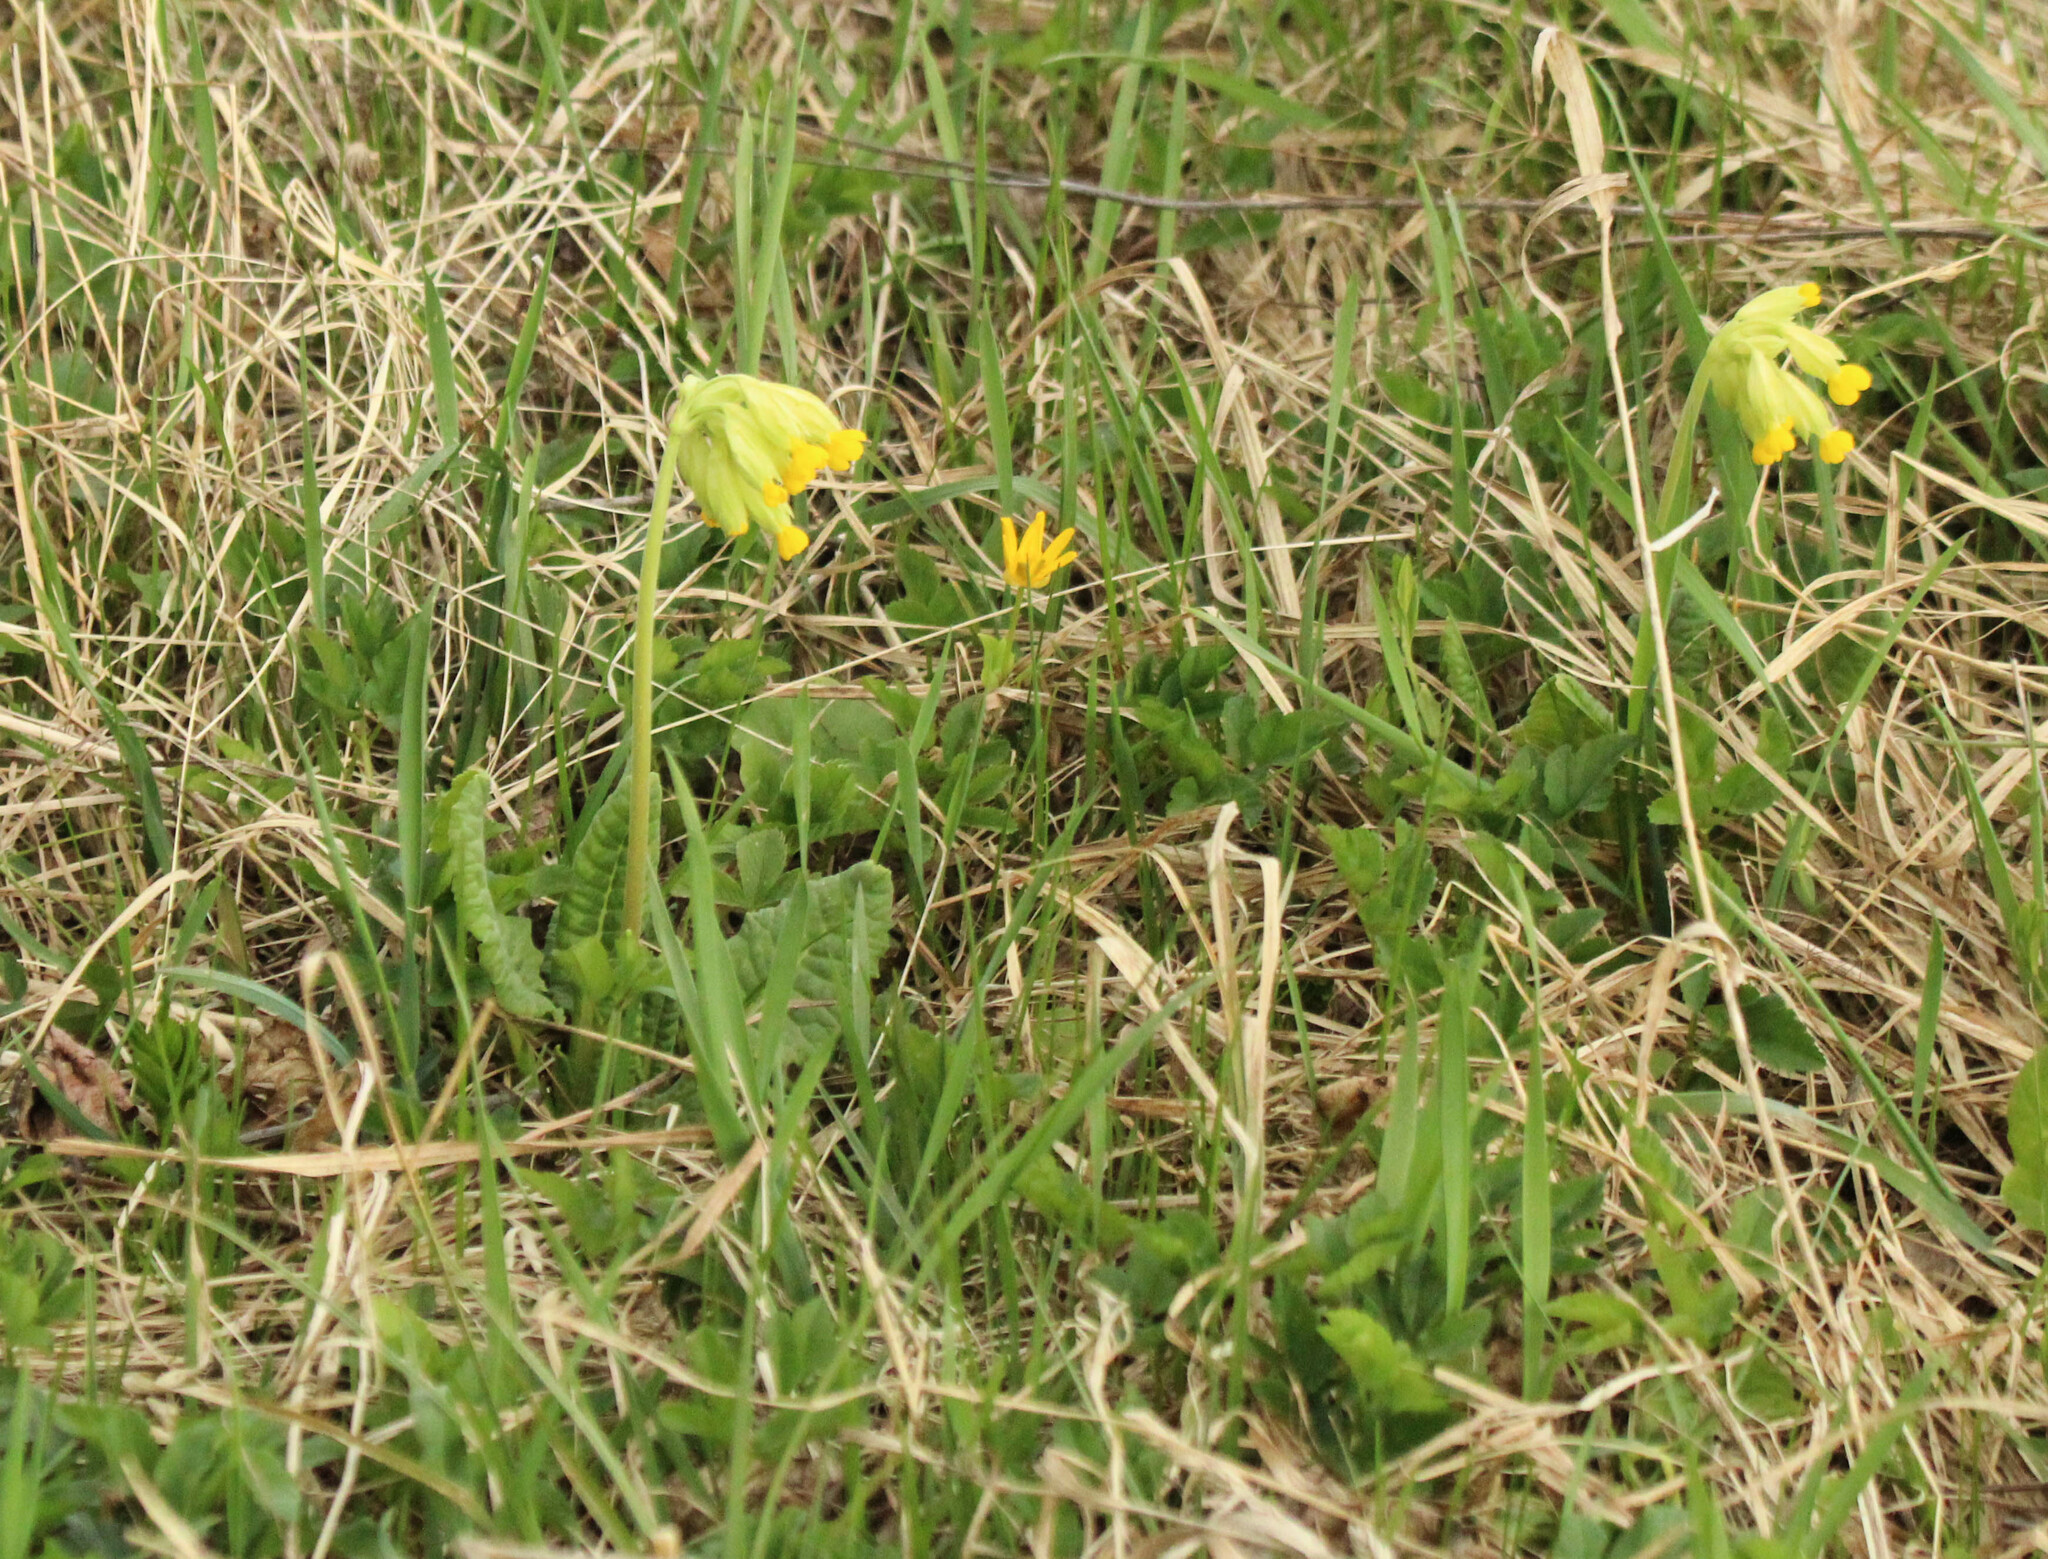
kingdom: Plantae
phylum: Tracheophyta
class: Magnoliopsida
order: Ericales
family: Primulaceae
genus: Primula
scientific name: Primula veris
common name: Cowslip
